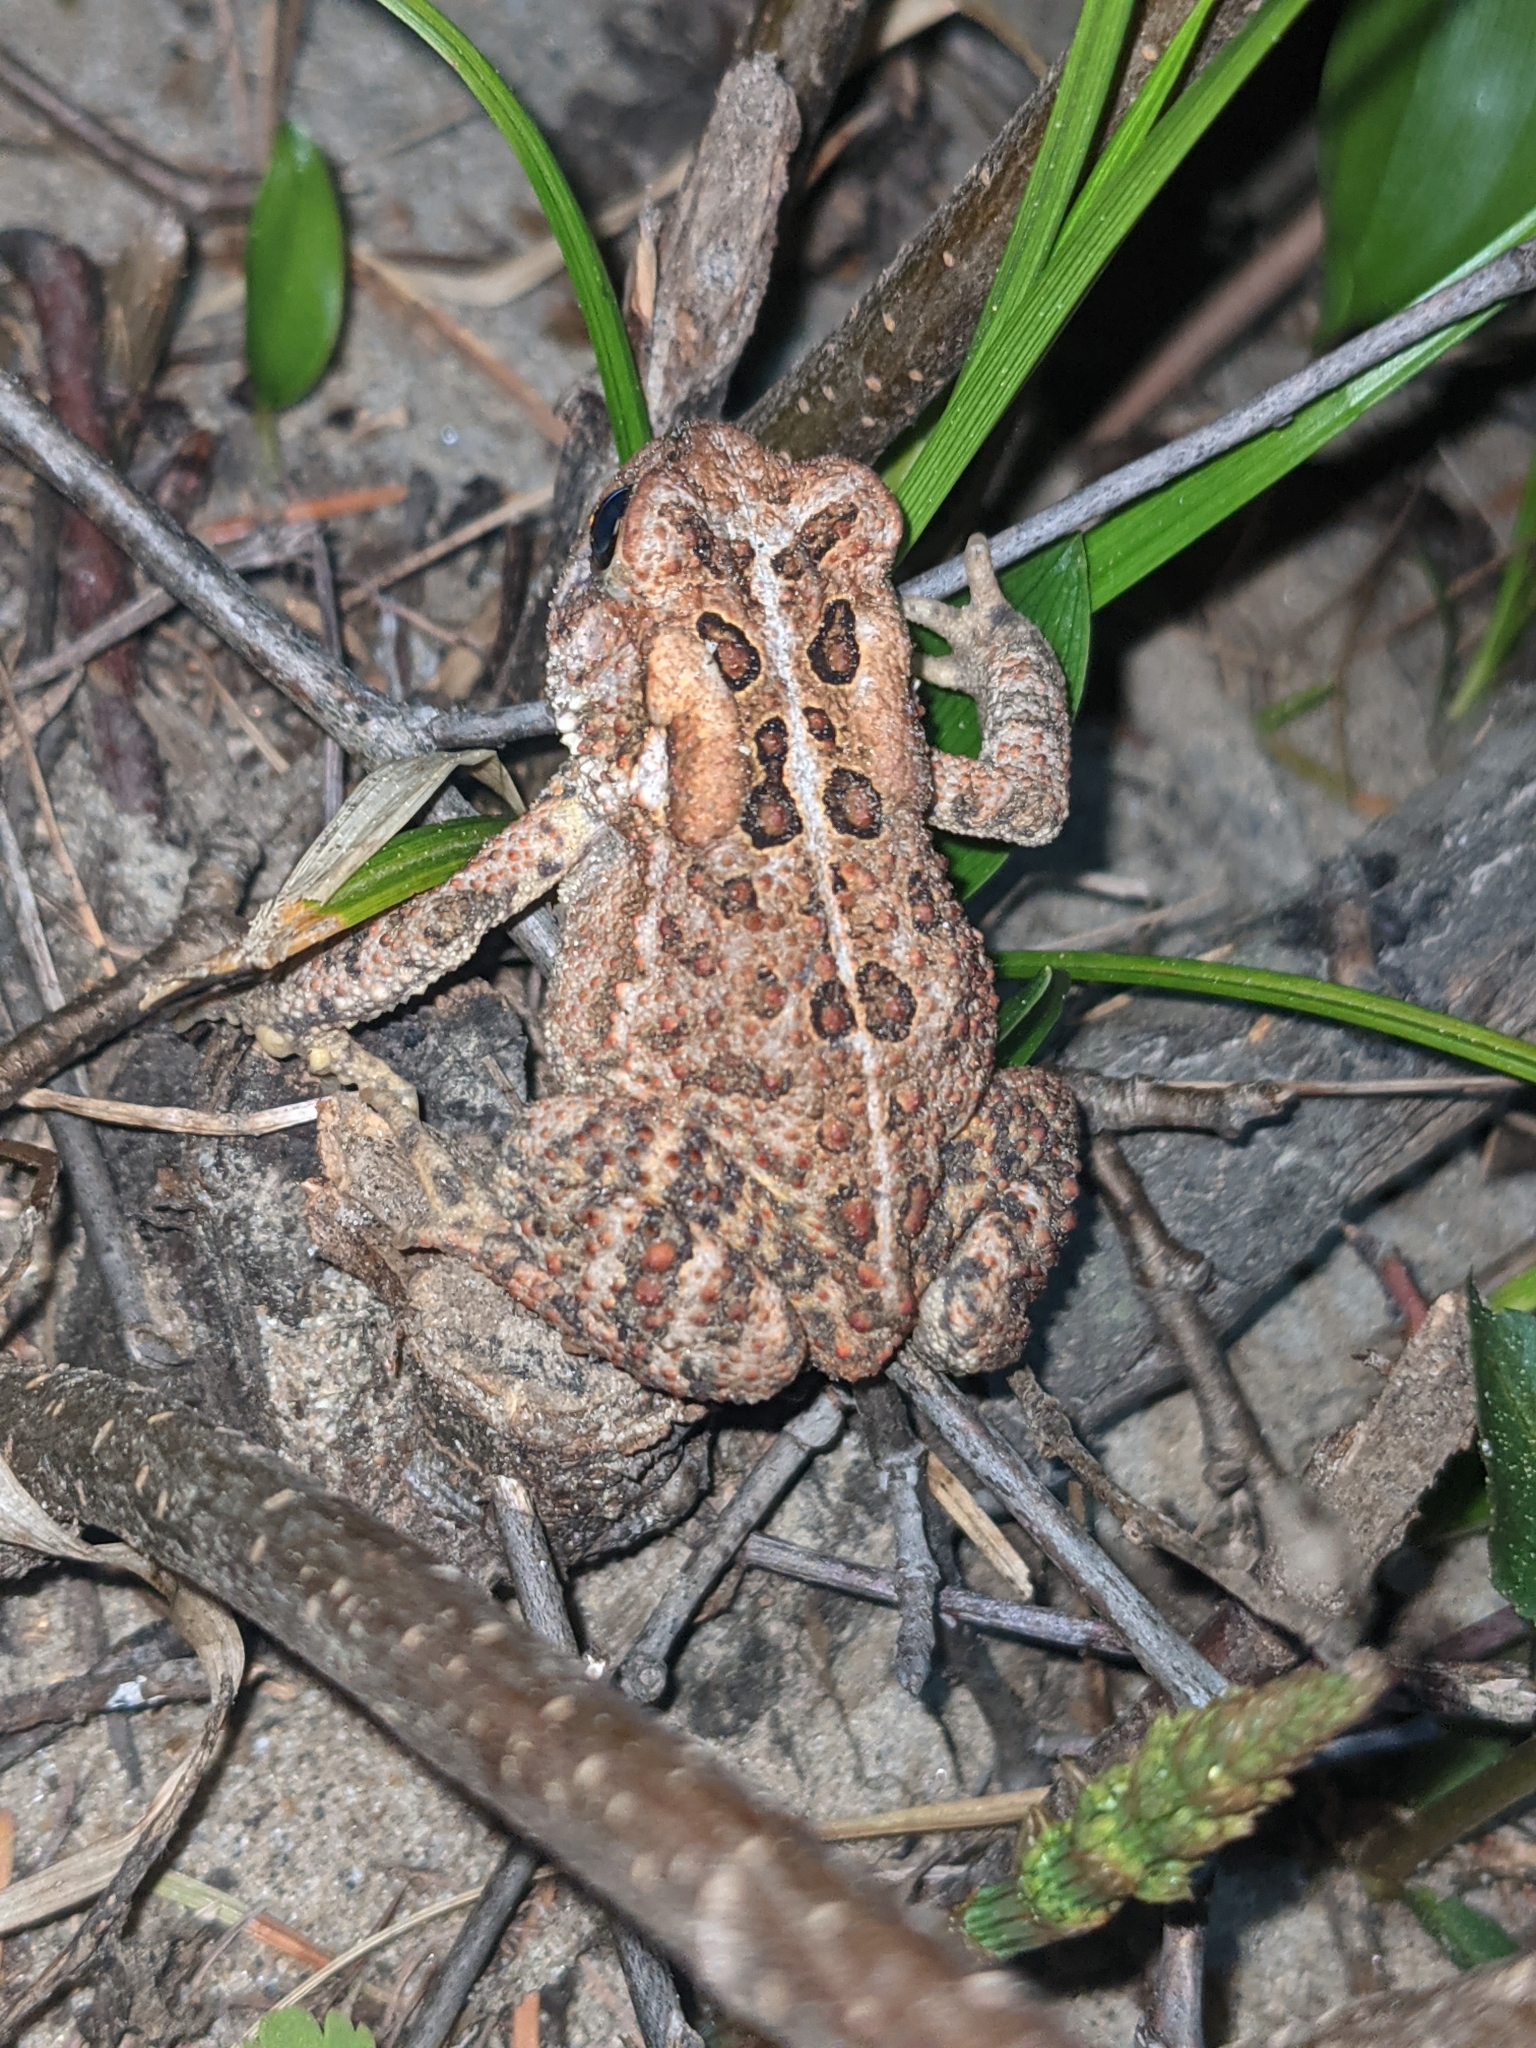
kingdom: Animalia
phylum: Chordata
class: Amphibia
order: Anura
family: Bufonidae
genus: Anaxyrus
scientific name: Anaxyrus americanus
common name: American toad
